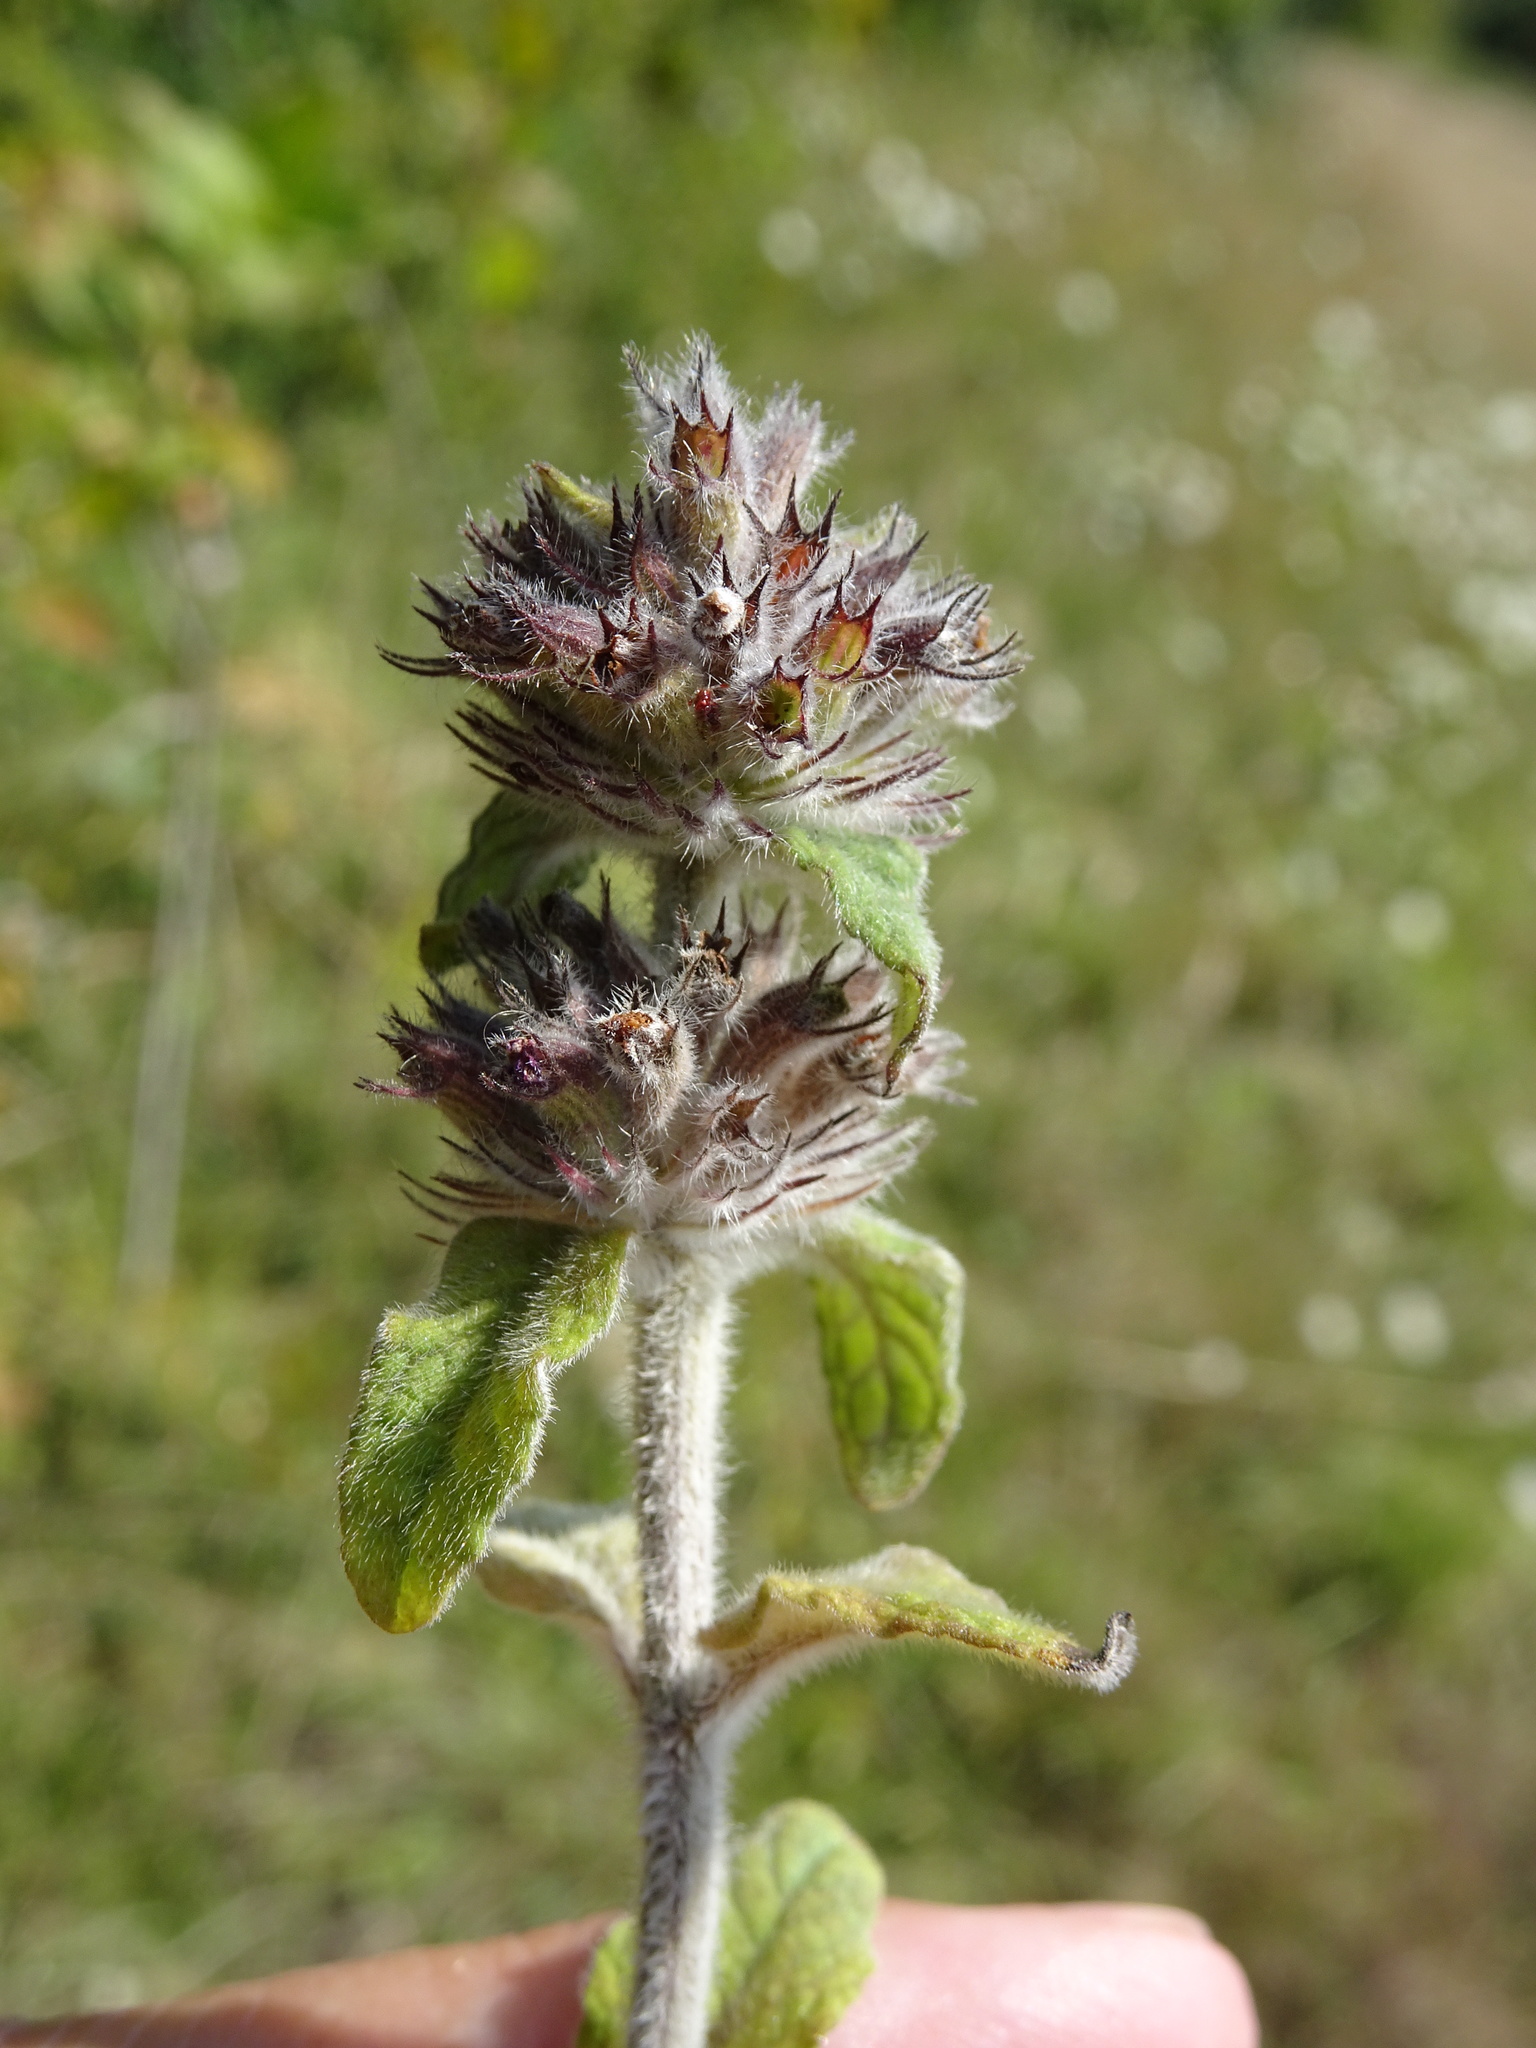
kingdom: Plantae
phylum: Tracheophyta
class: Magnoliopsida
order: Lamiales
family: Lamiaceae
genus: Clinopodium
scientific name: Clinopodium vulgare
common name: Wild basil
